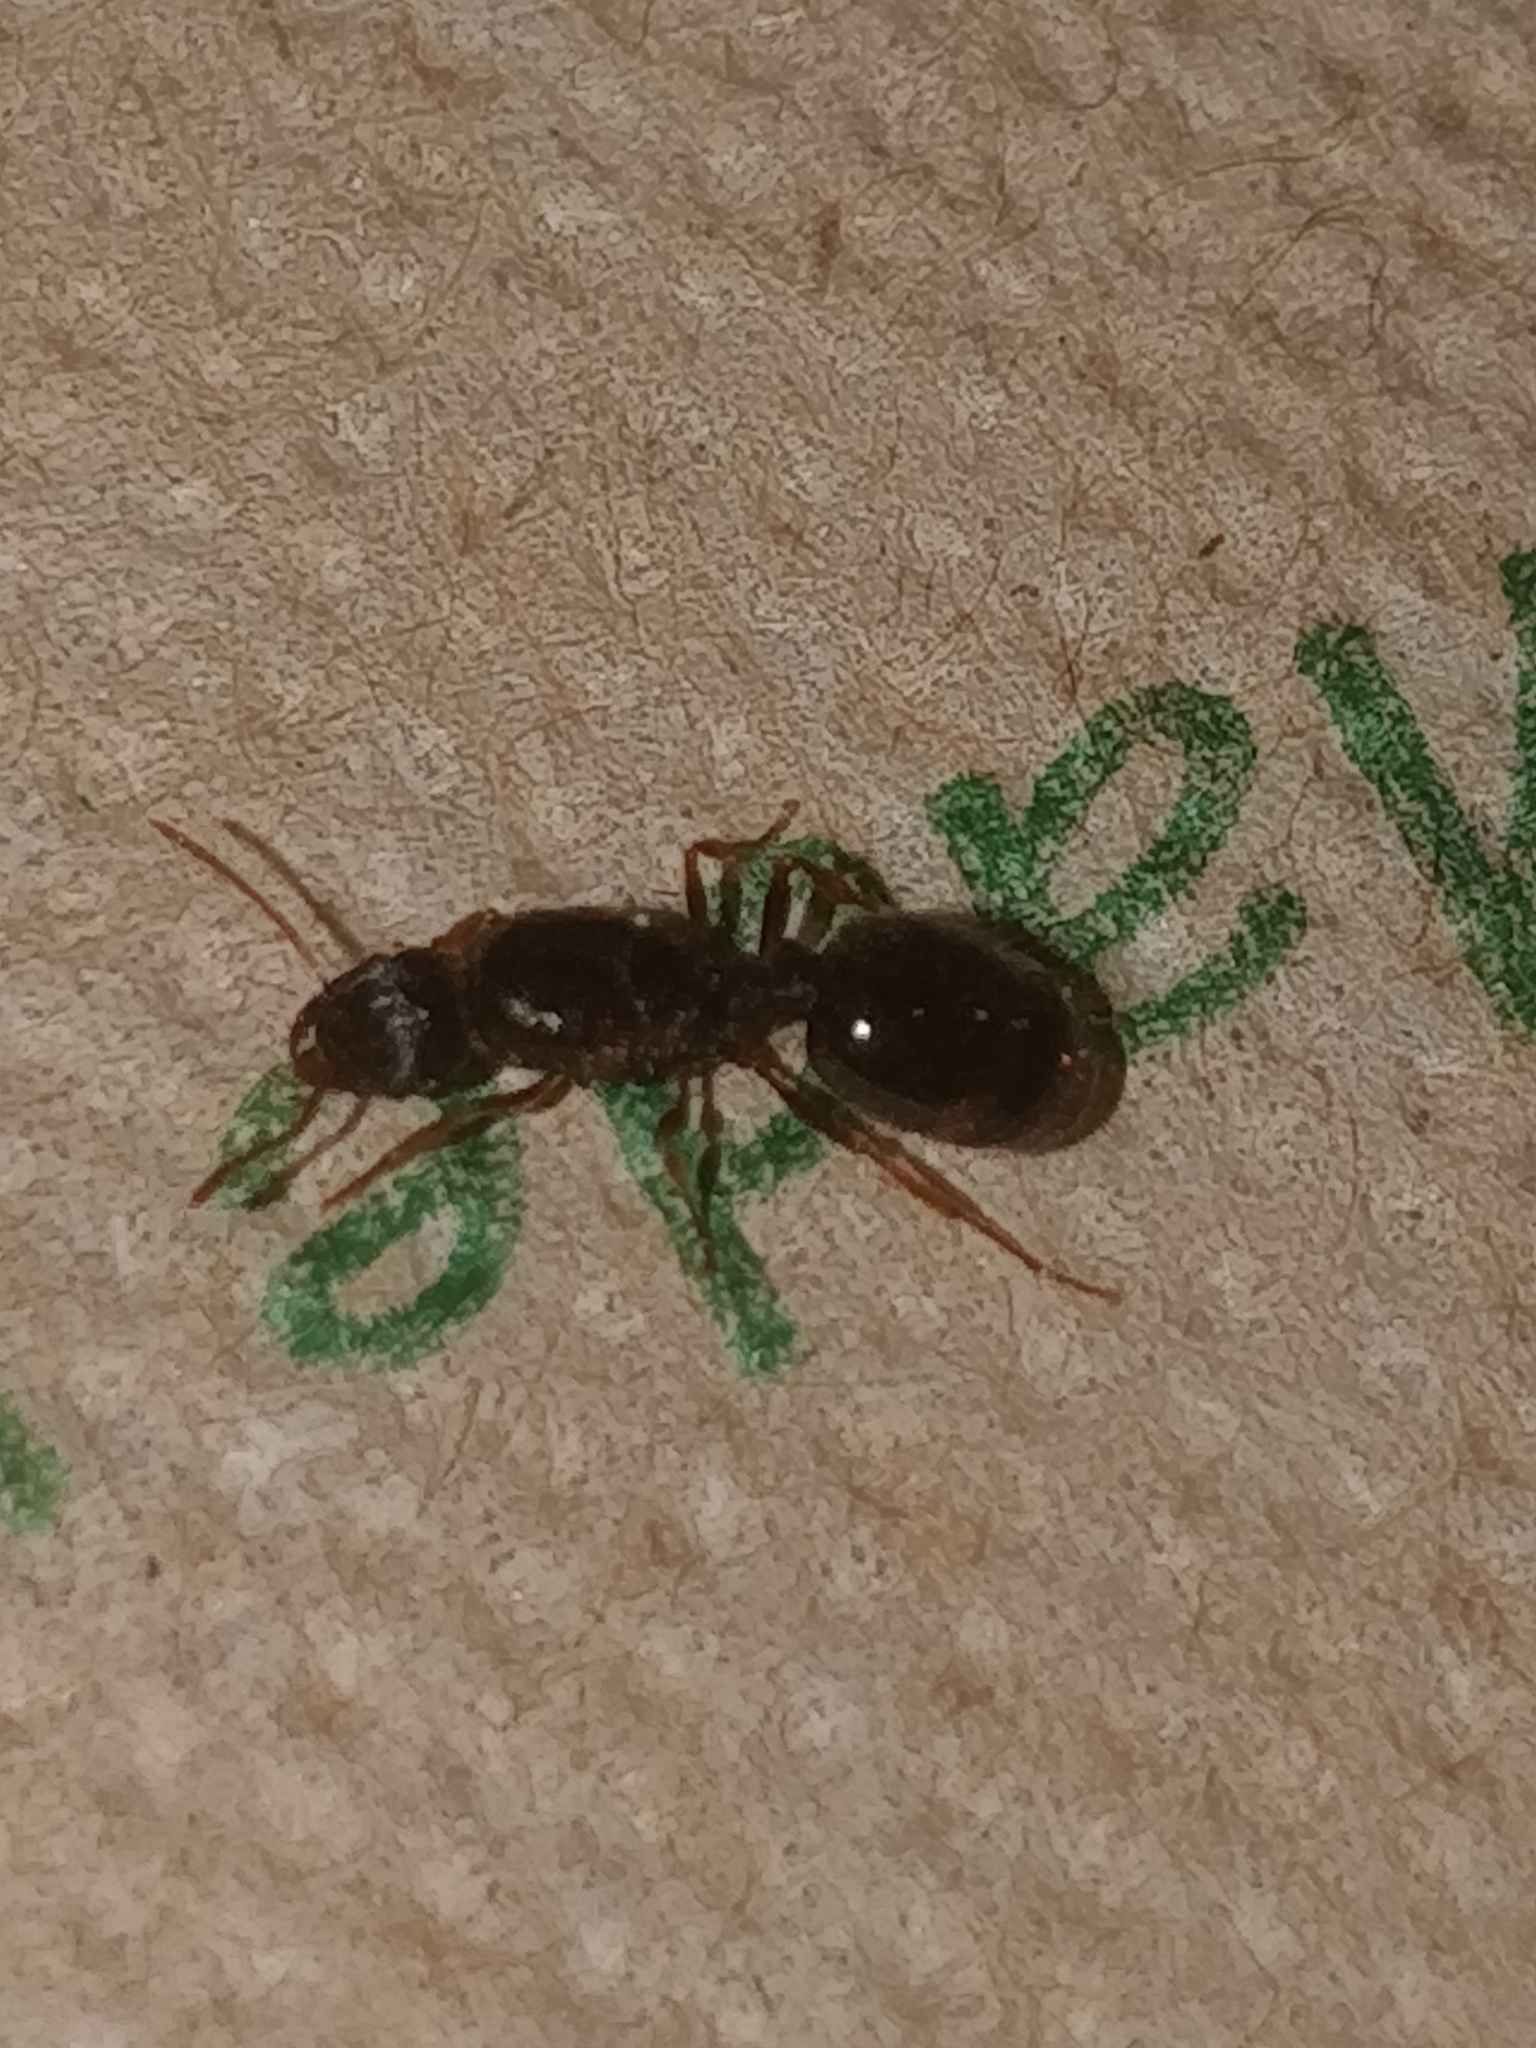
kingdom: Animalia
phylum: Arthropoda
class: Insecta
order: Hymenoptera
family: Formicidae
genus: Tetramorium
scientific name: Tetramorium immigrans
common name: Pavement ant
